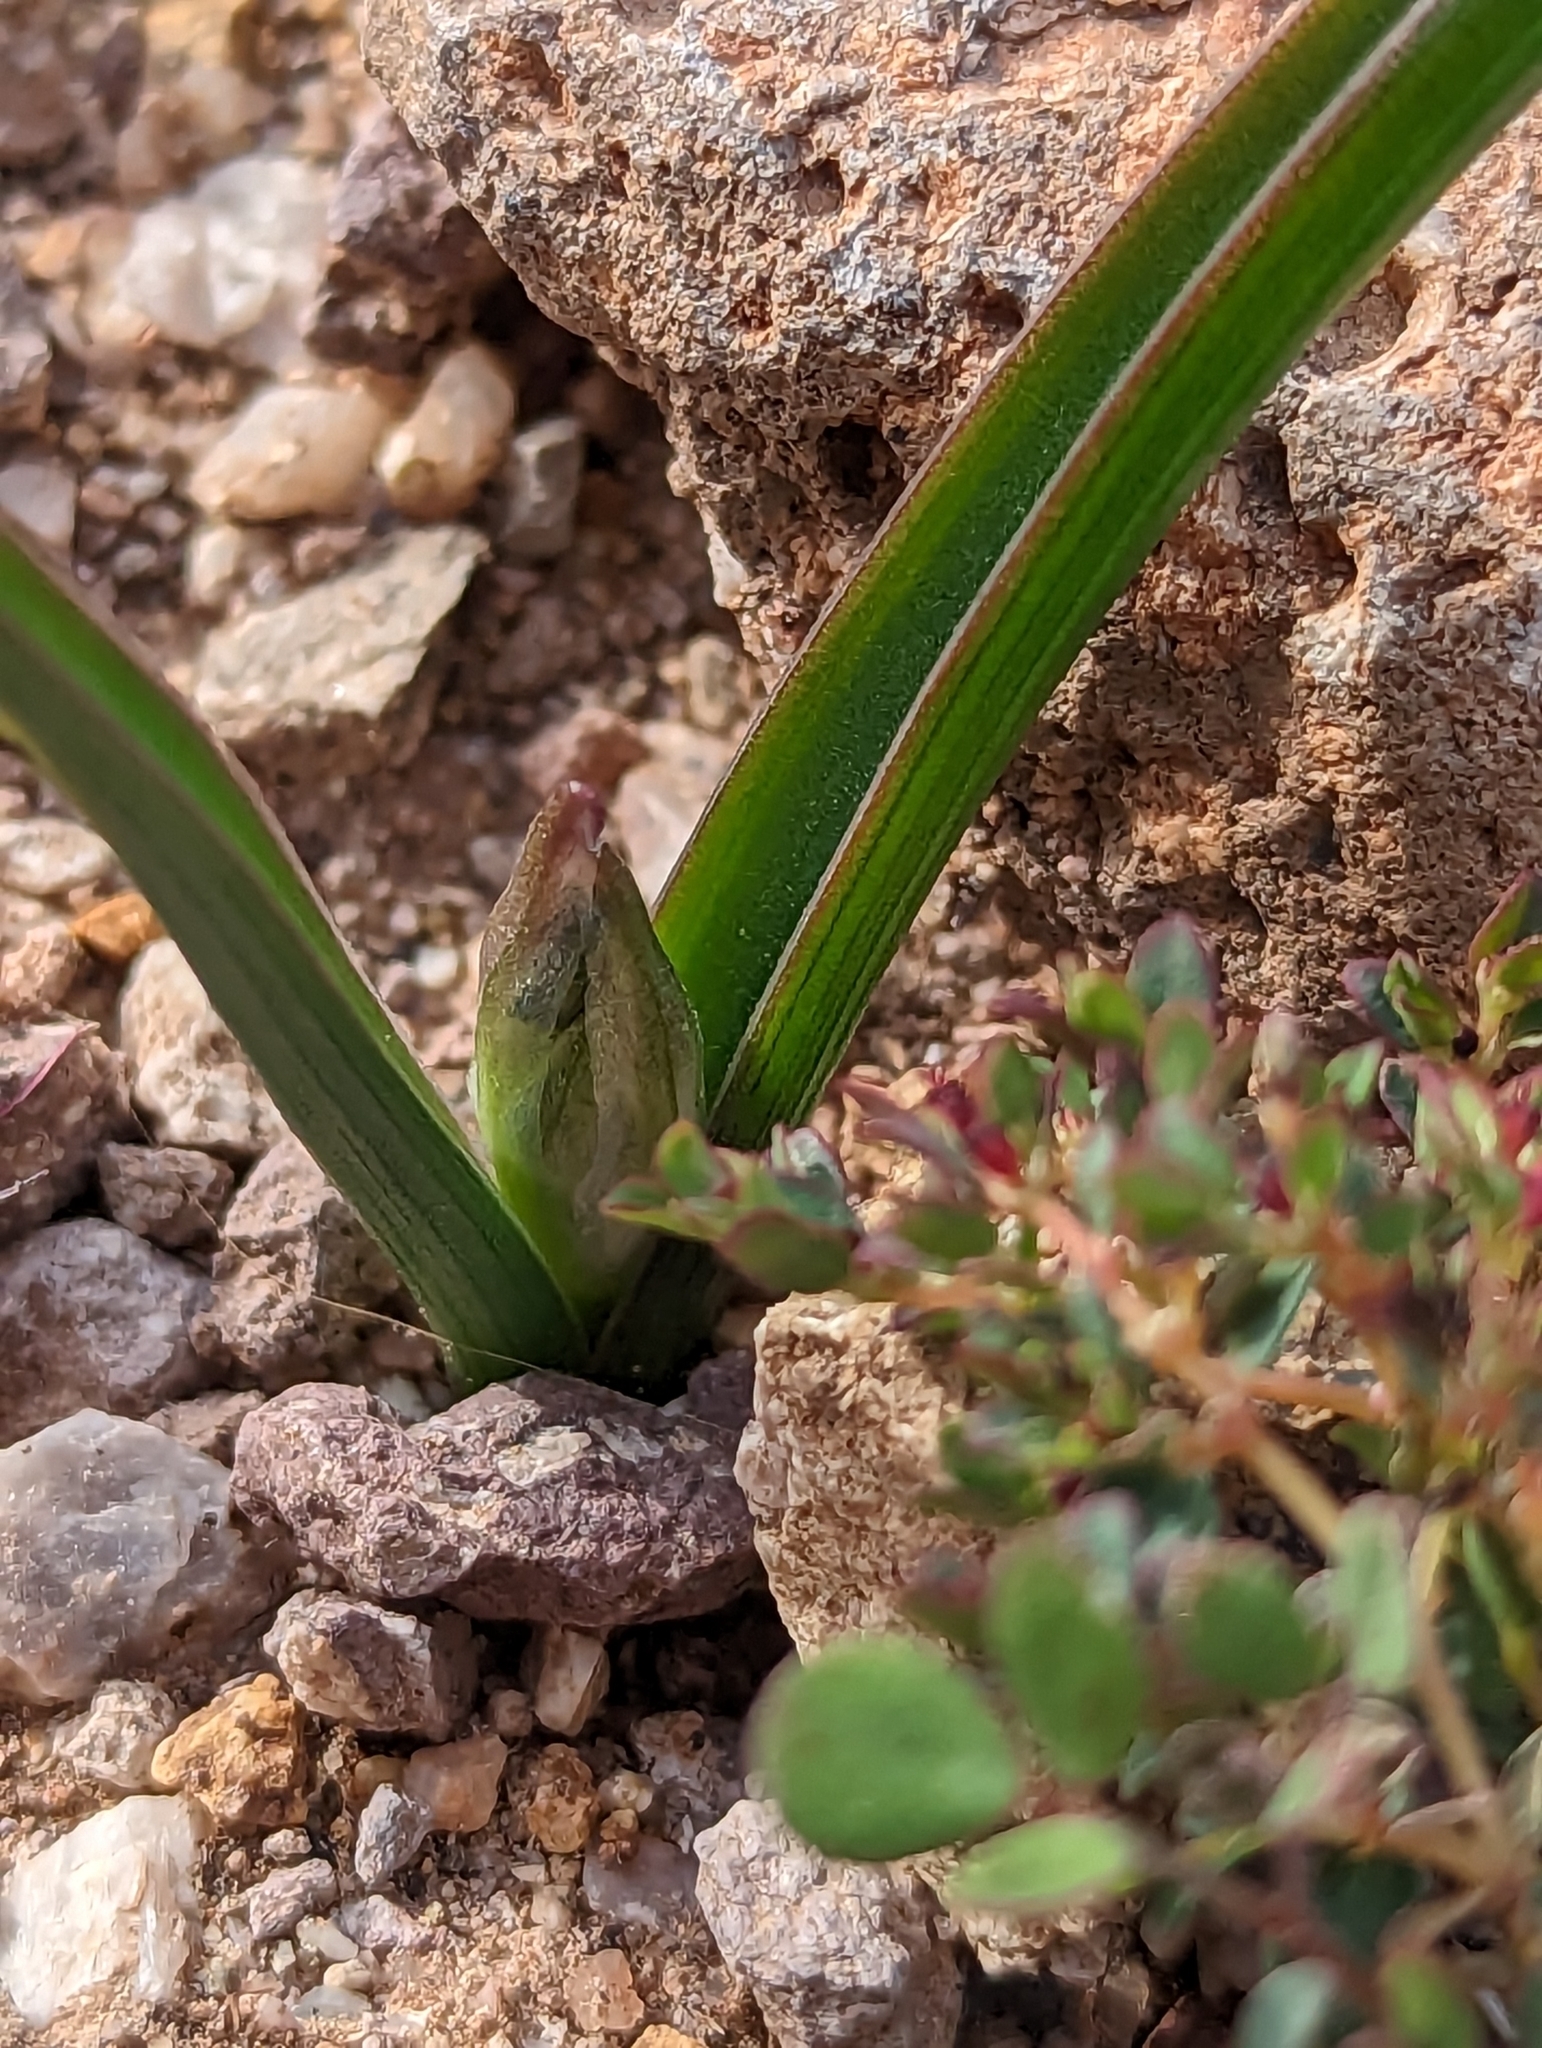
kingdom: Plantae
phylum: Tracheophyta
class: Liliopsida
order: Asparagales
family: Asparagaceae
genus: Dipterostemon
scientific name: Dipterostemon capitatus
